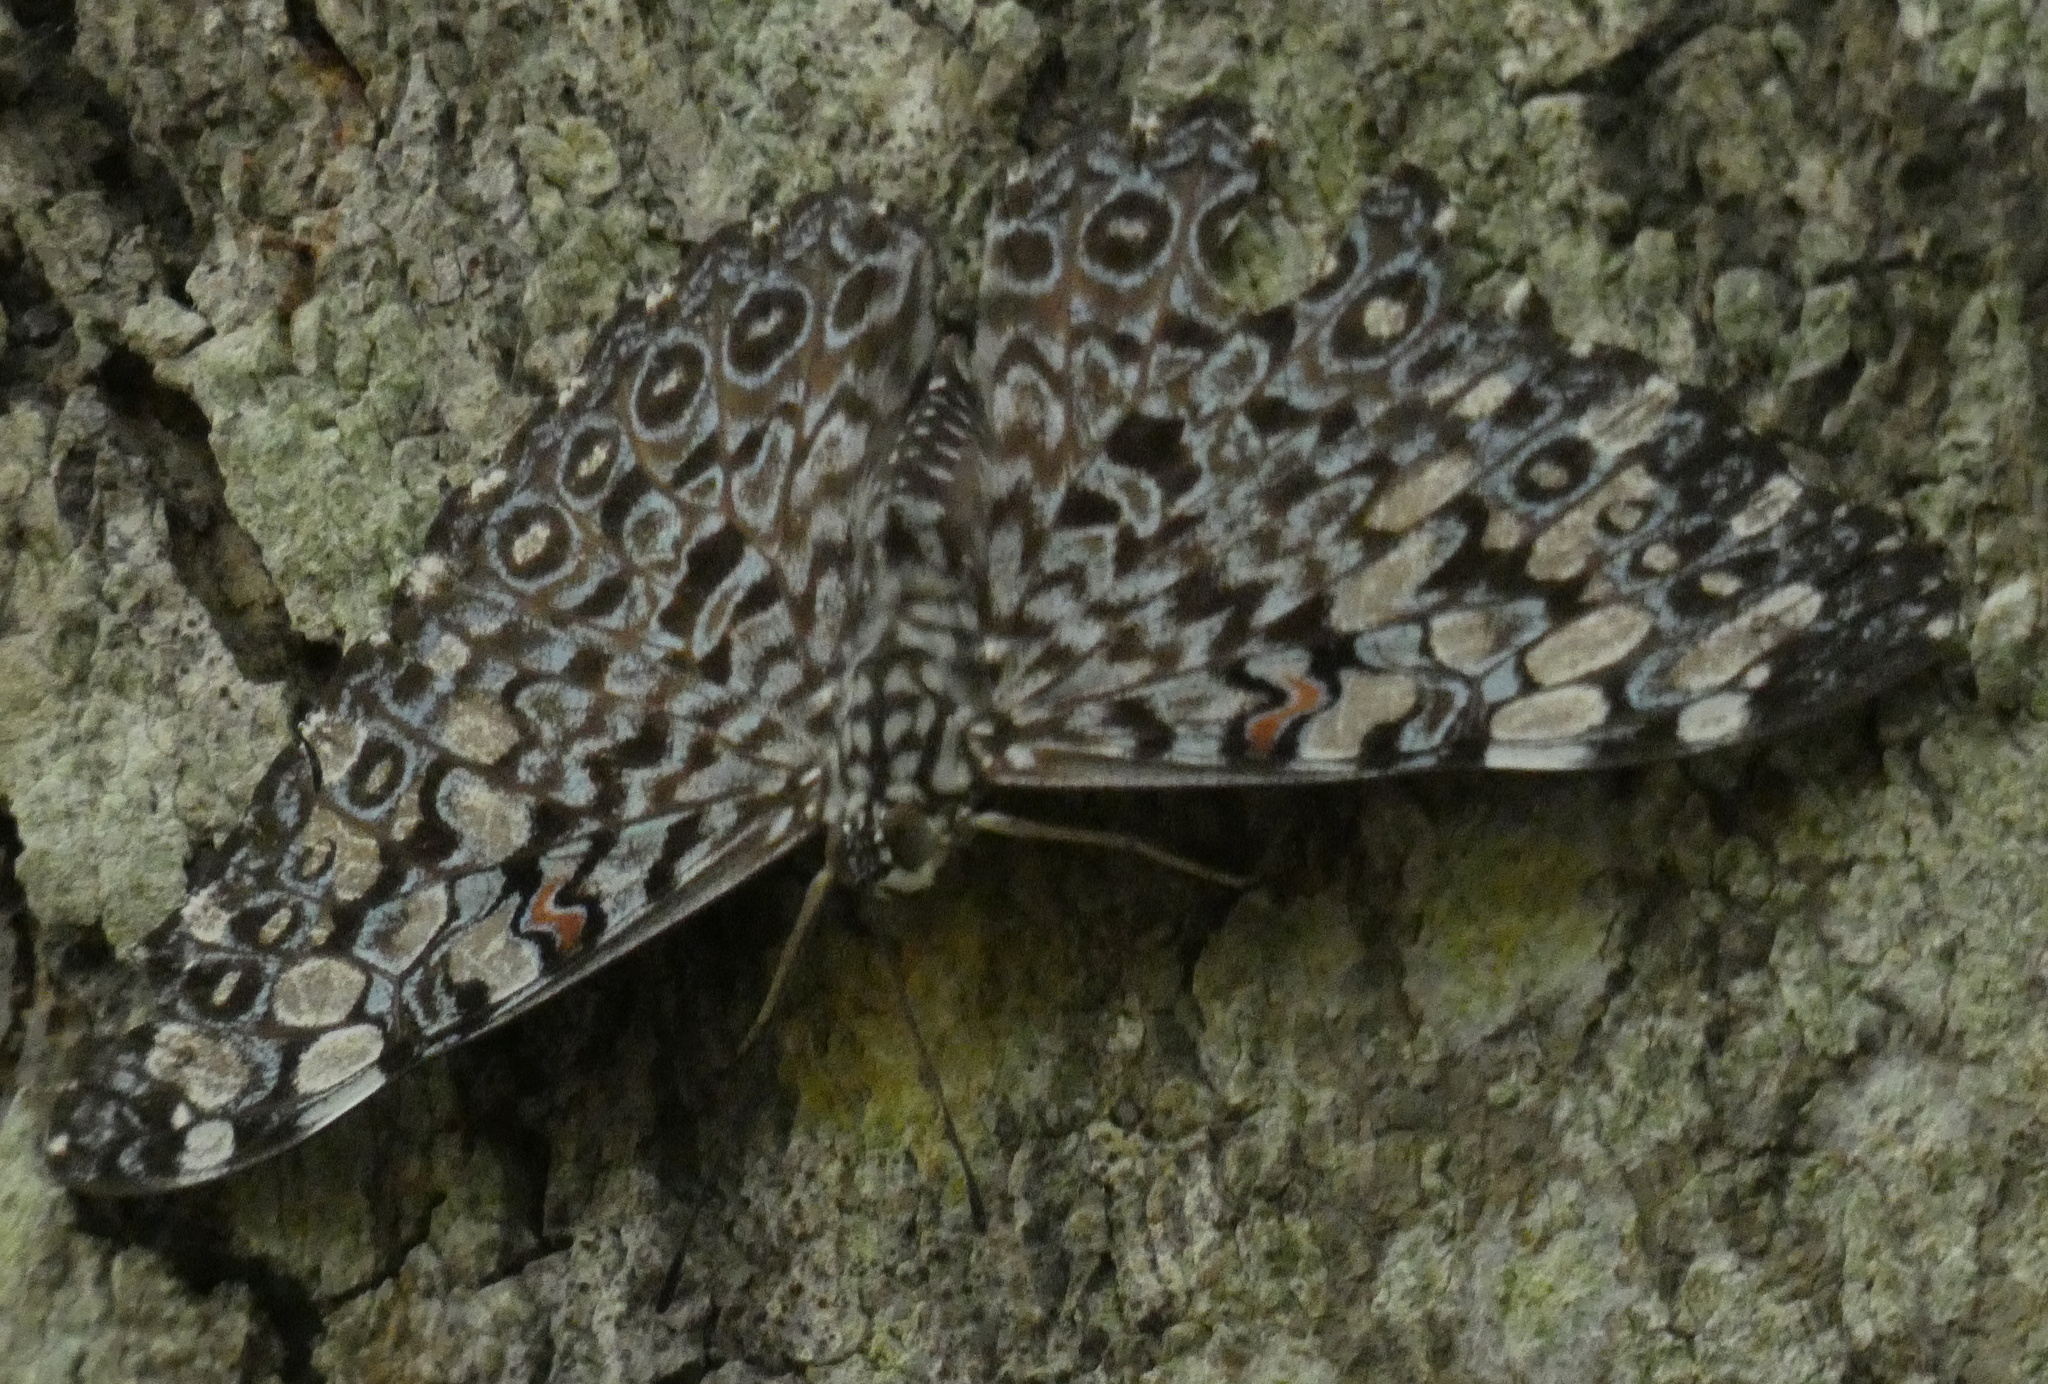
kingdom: Animalia
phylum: Arthropoda
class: Insecta
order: Lepidoptera
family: Nymphalidae
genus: Hamadryas
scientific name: Hamadryas feronia
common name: Variable cracker
